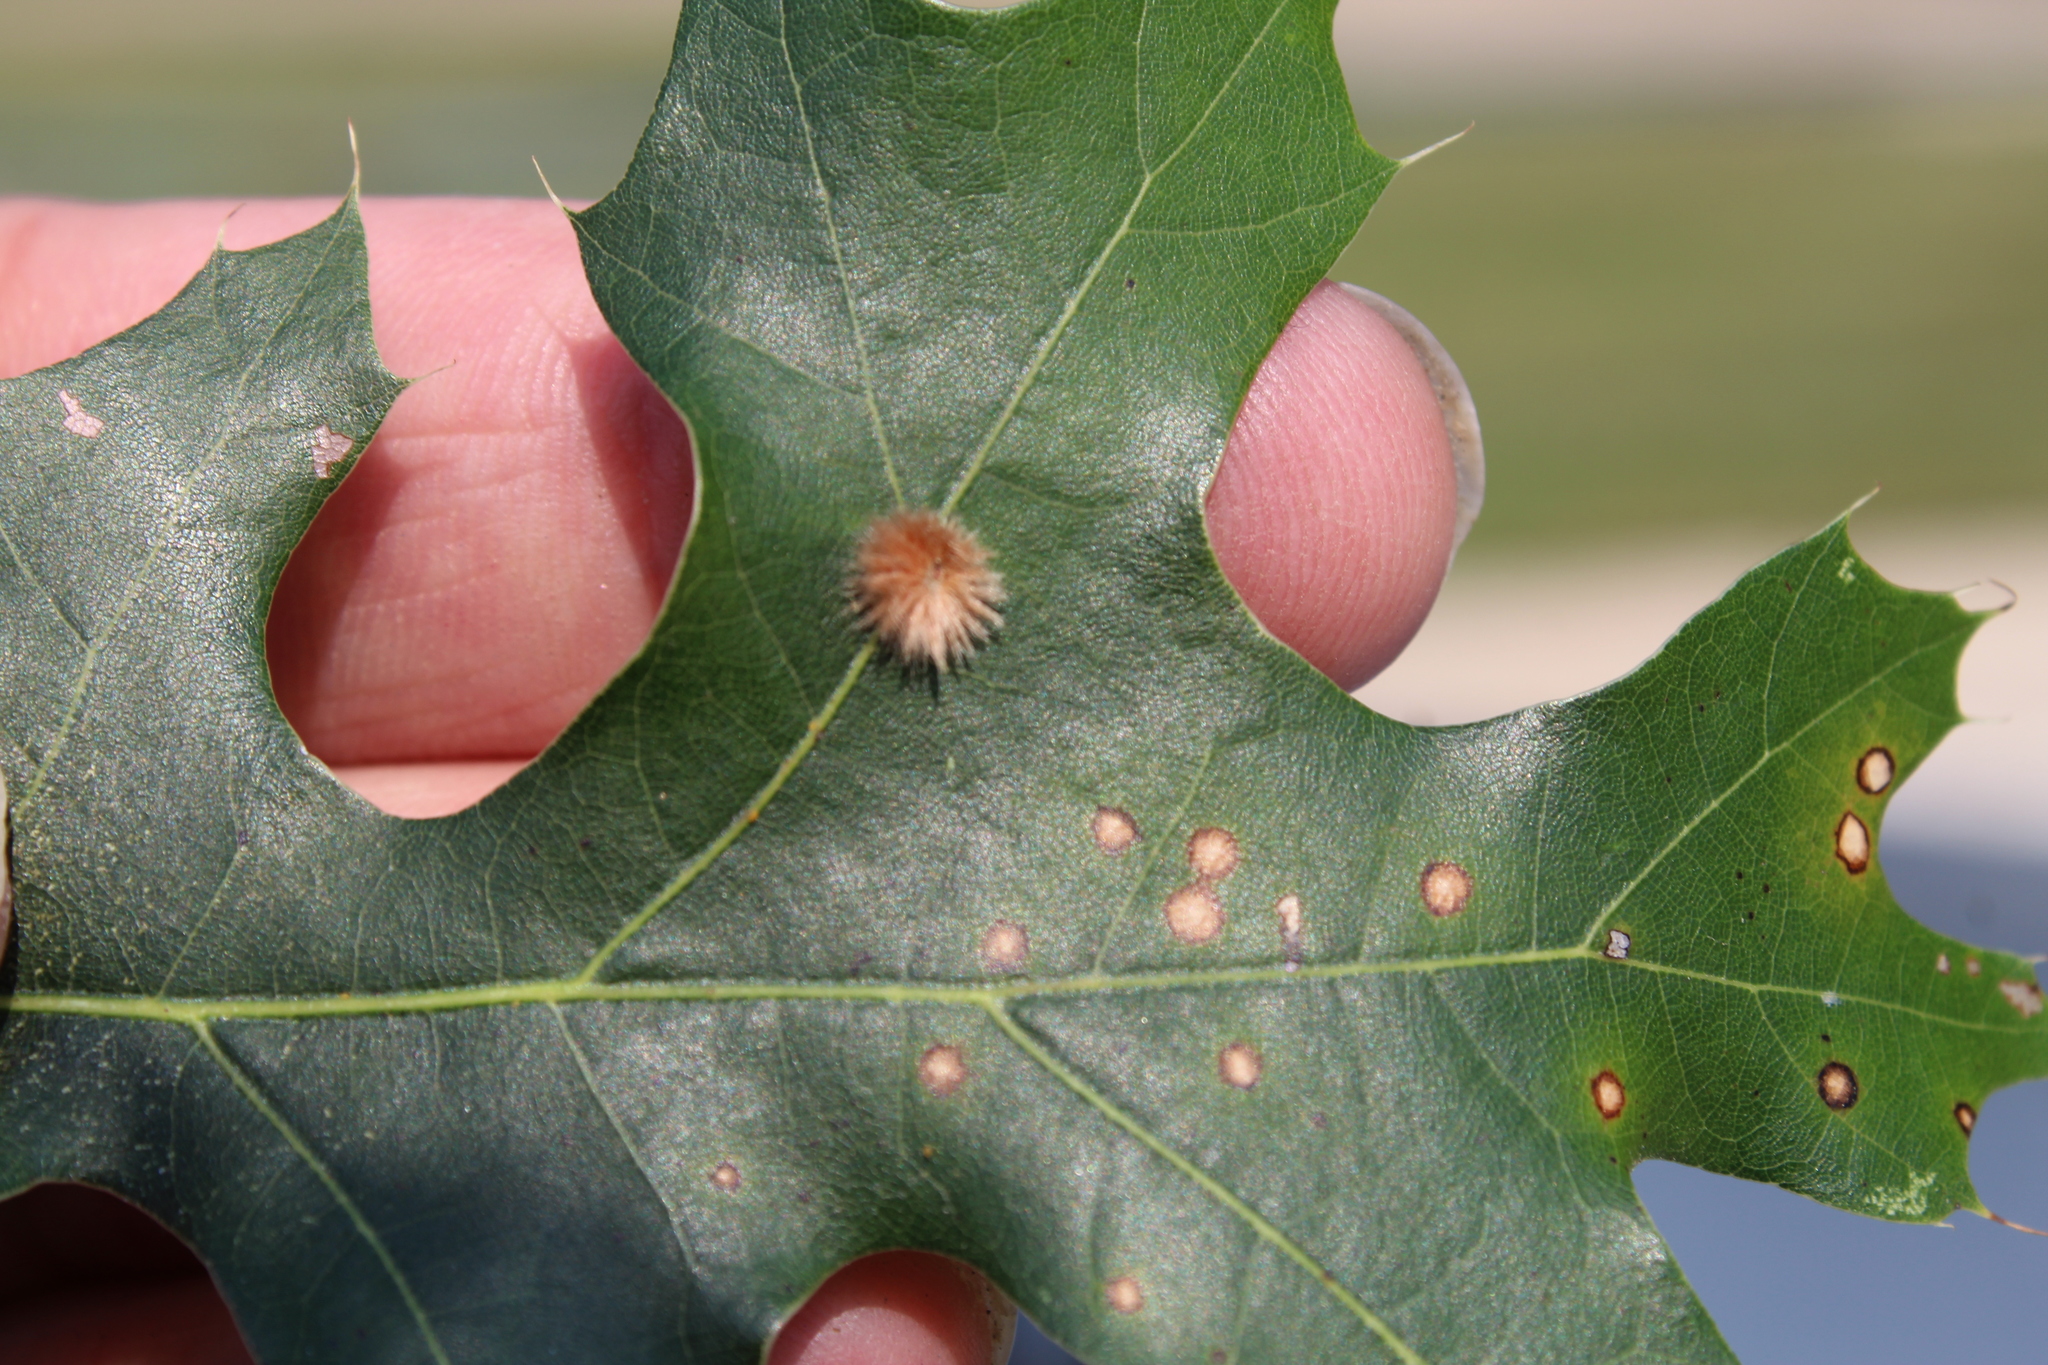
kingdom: Animalia
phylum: Arthropoda
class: Insecta
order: Hymenoptera
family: Cynipidae
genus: Callirhytis
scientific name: Callirhytis
